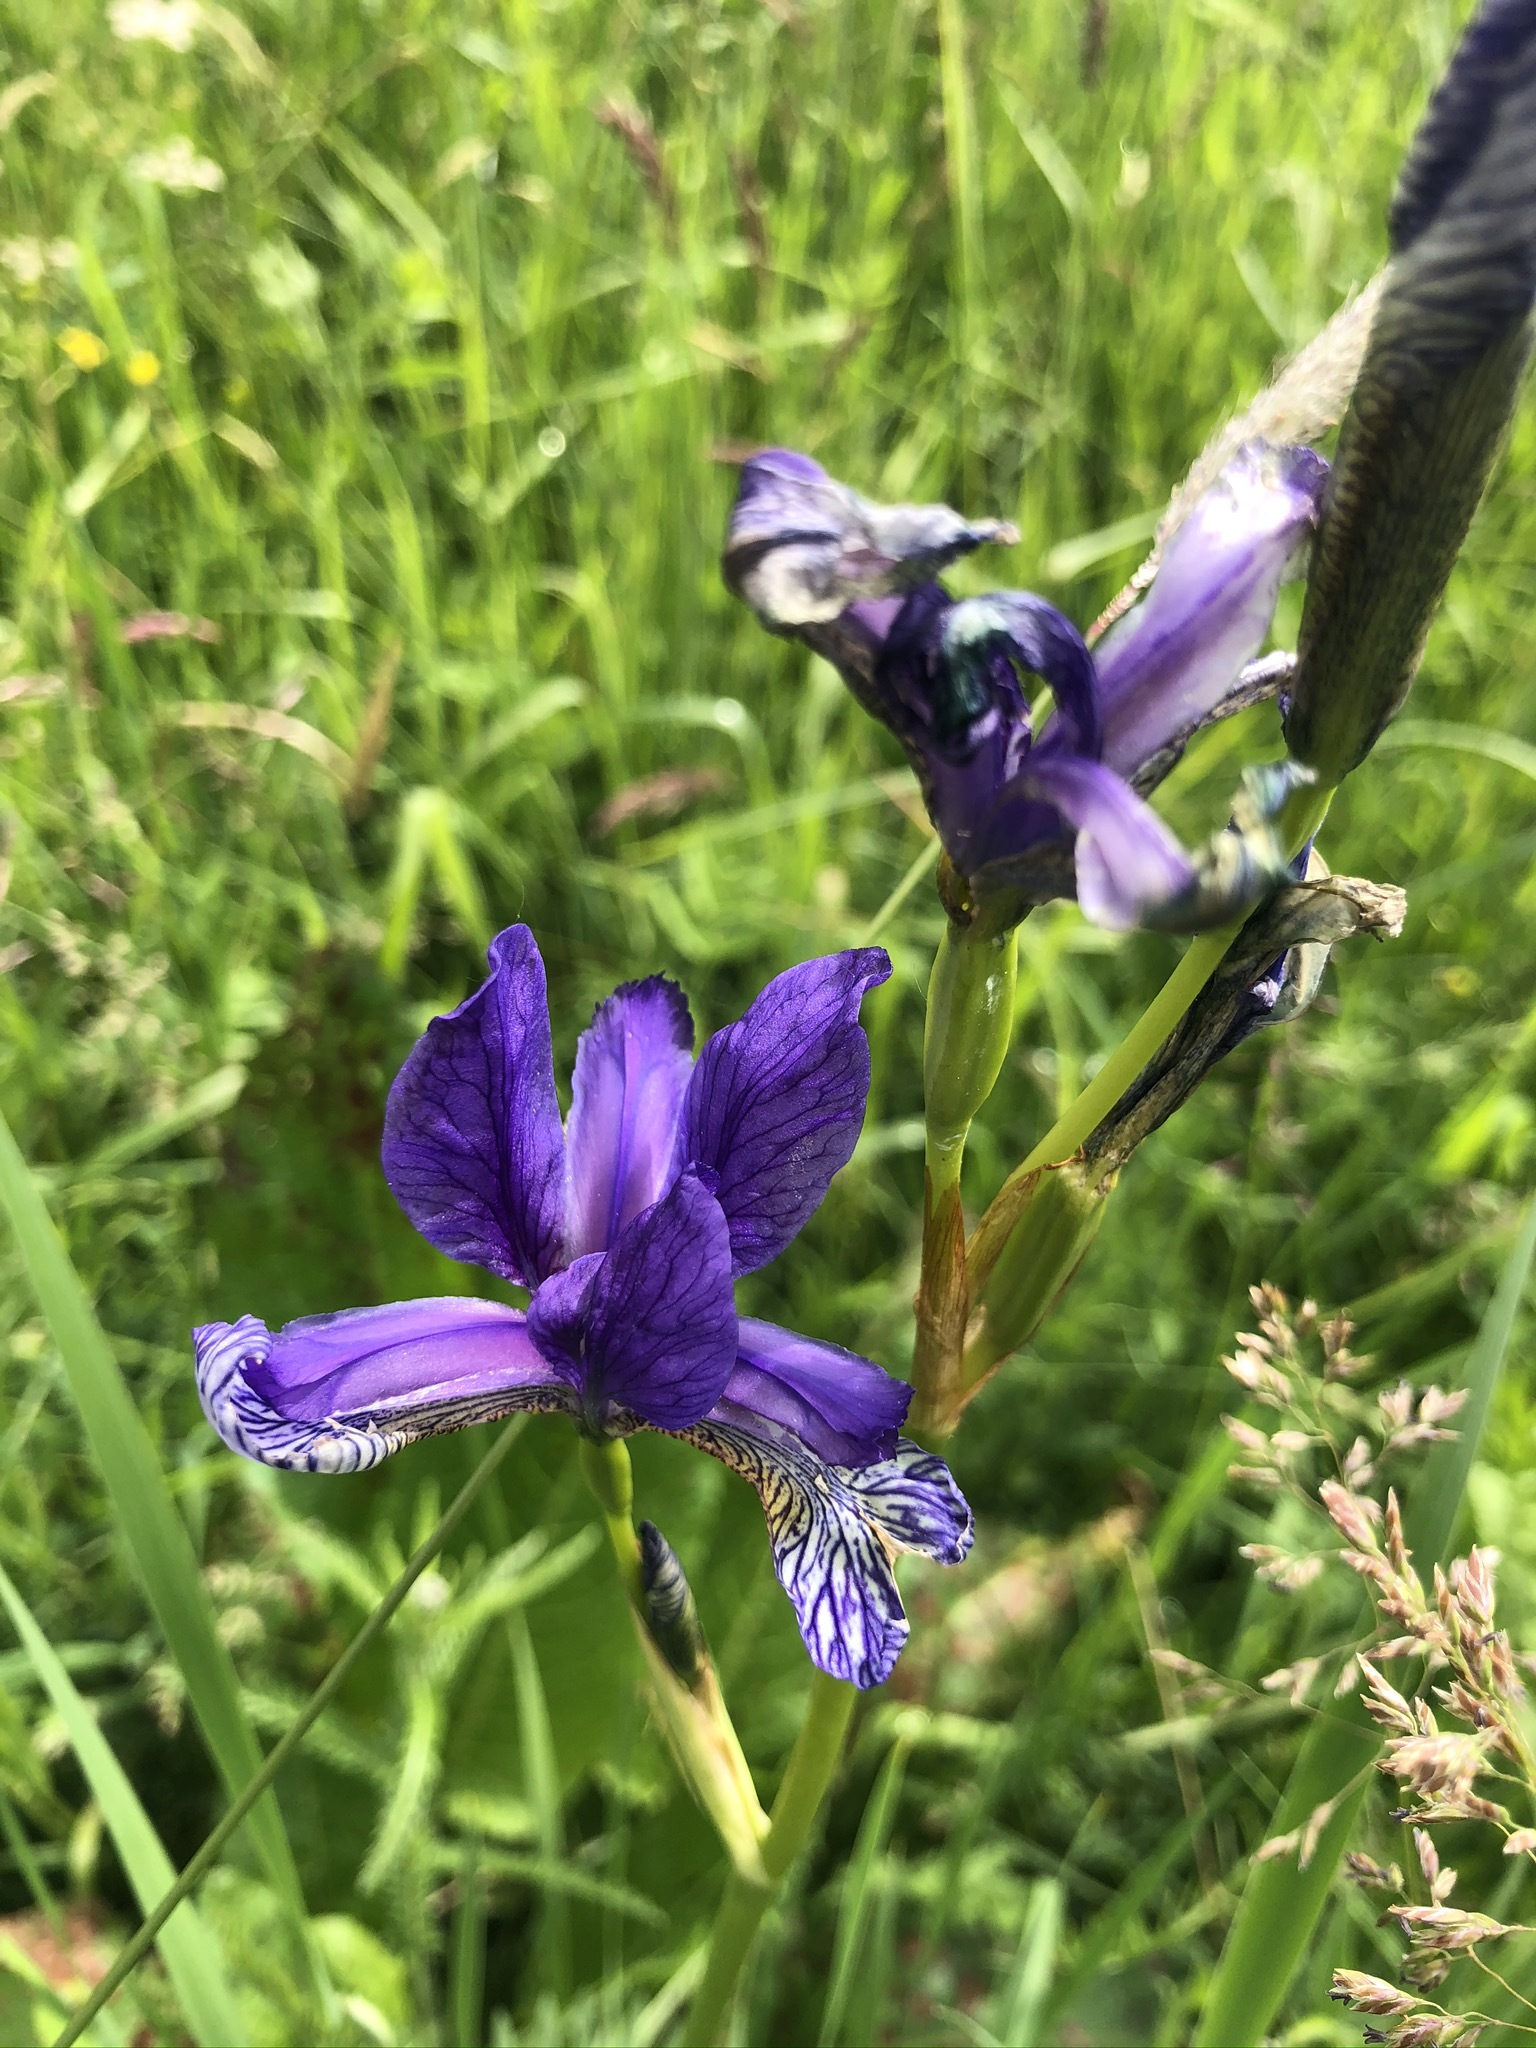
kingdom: Plantae
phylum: Tracheophyta
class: Liliopsida
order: Asparagales
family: Iridaceae
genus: Iris
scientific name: Iris sibirica
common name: Siberian iris
